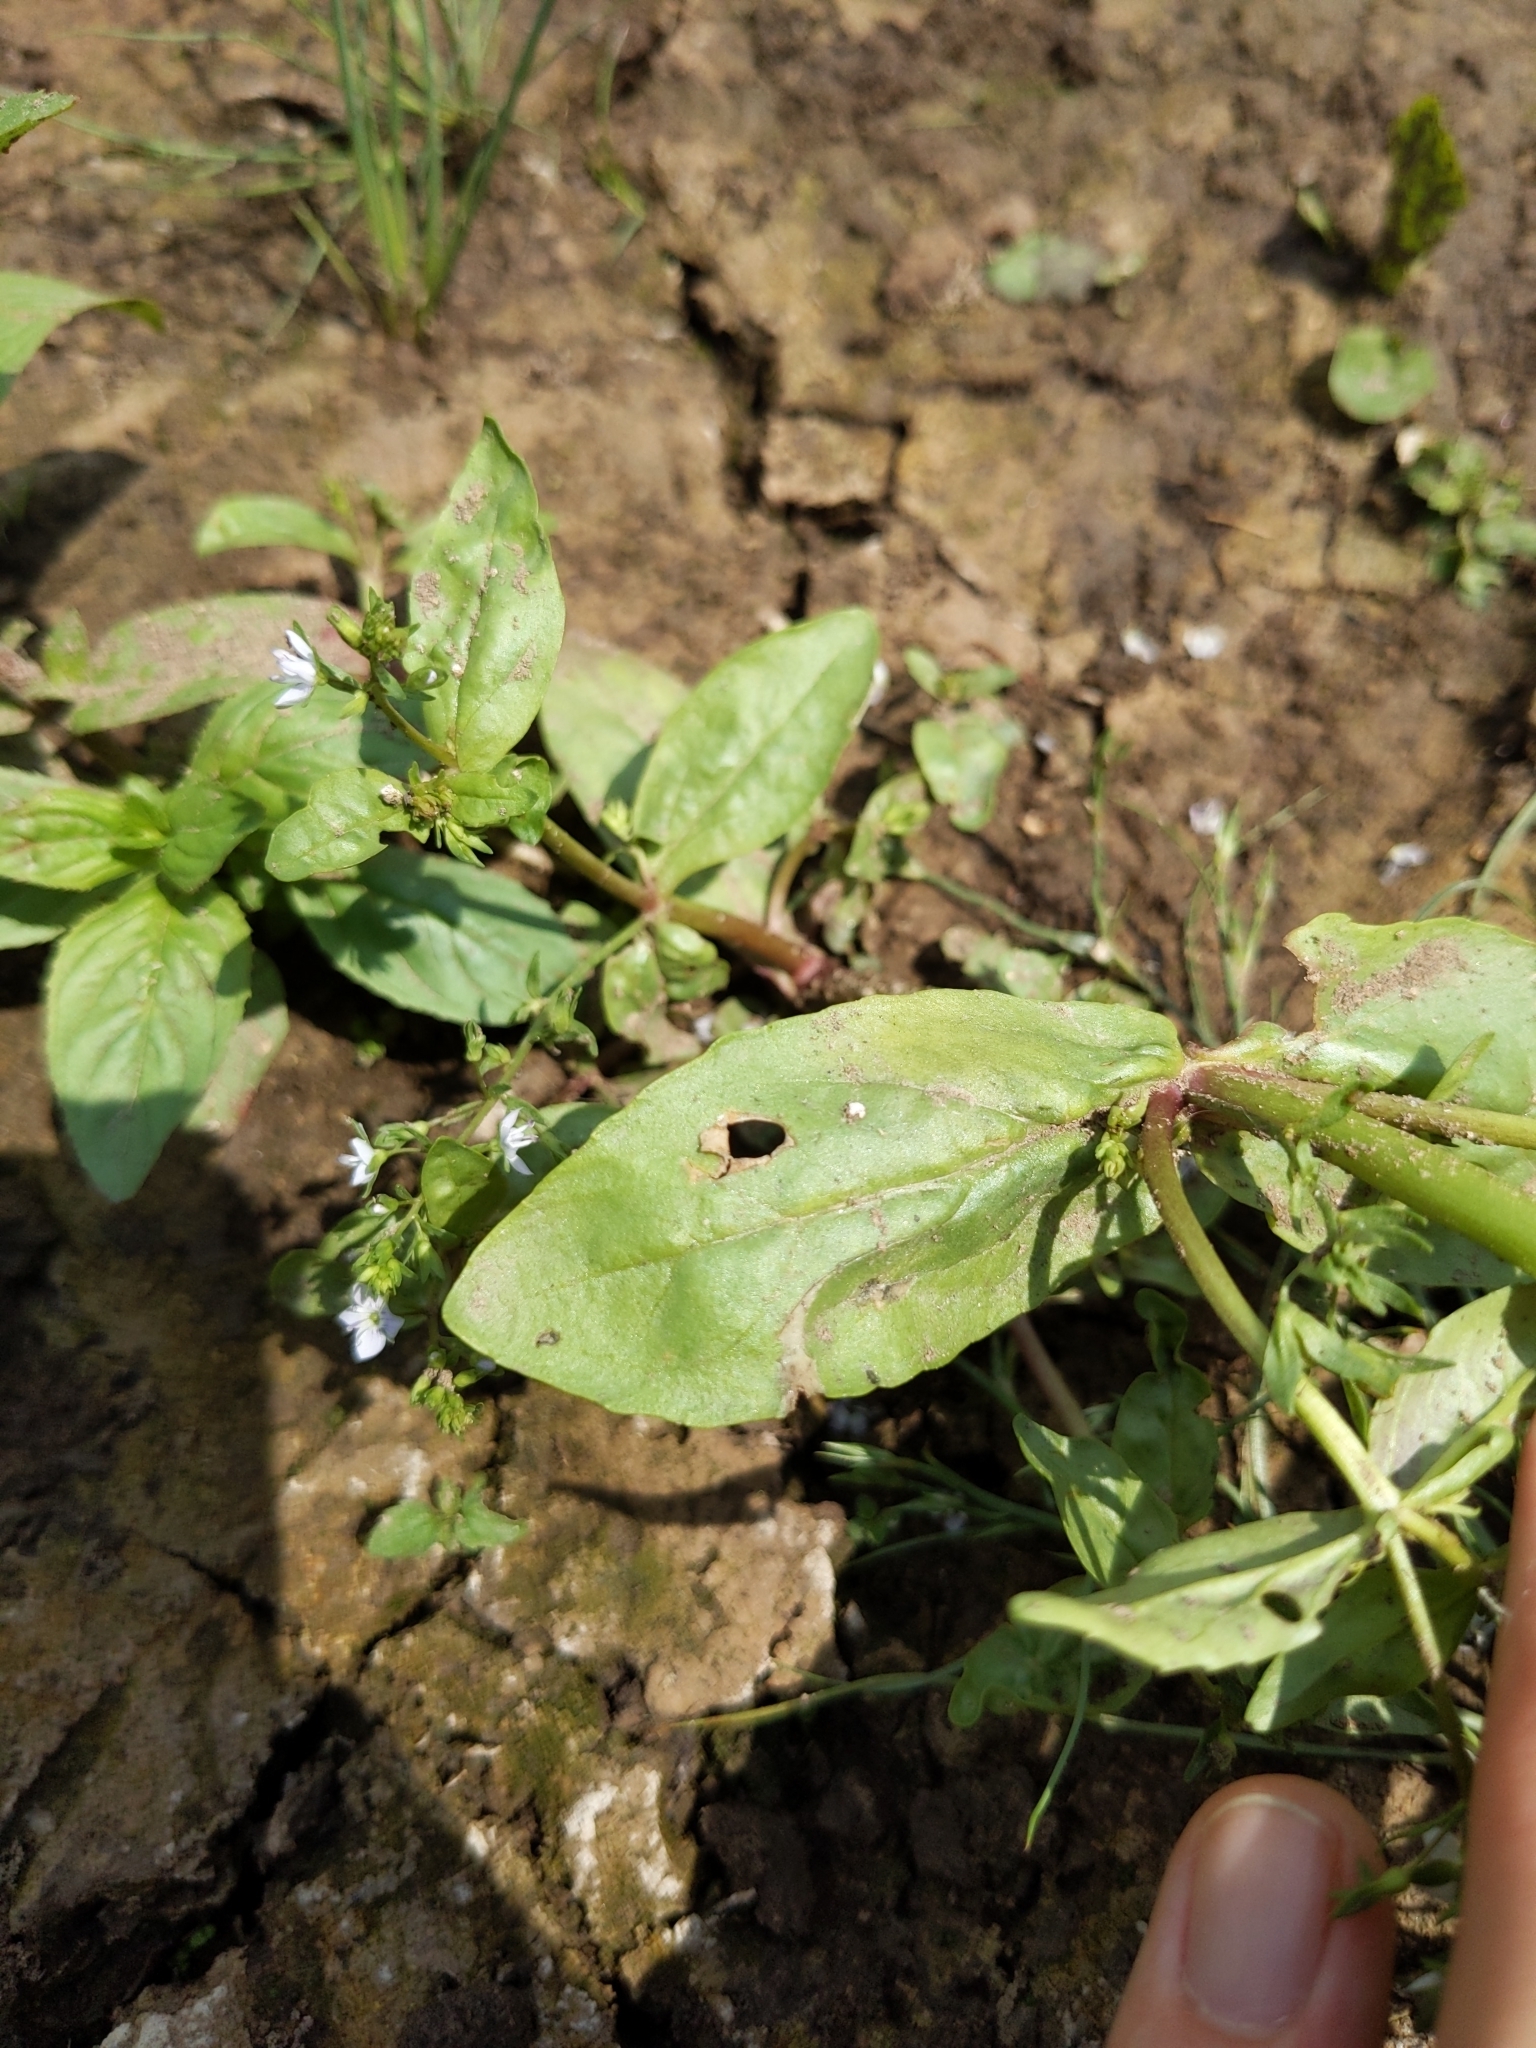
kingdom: Plantae
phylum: Tracheophyta
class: Magnoliopsida
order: Lamiales
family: Plantaginaceae
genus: Veronica
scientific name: Veronica anagallis-aquatica
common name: Water speedwell
